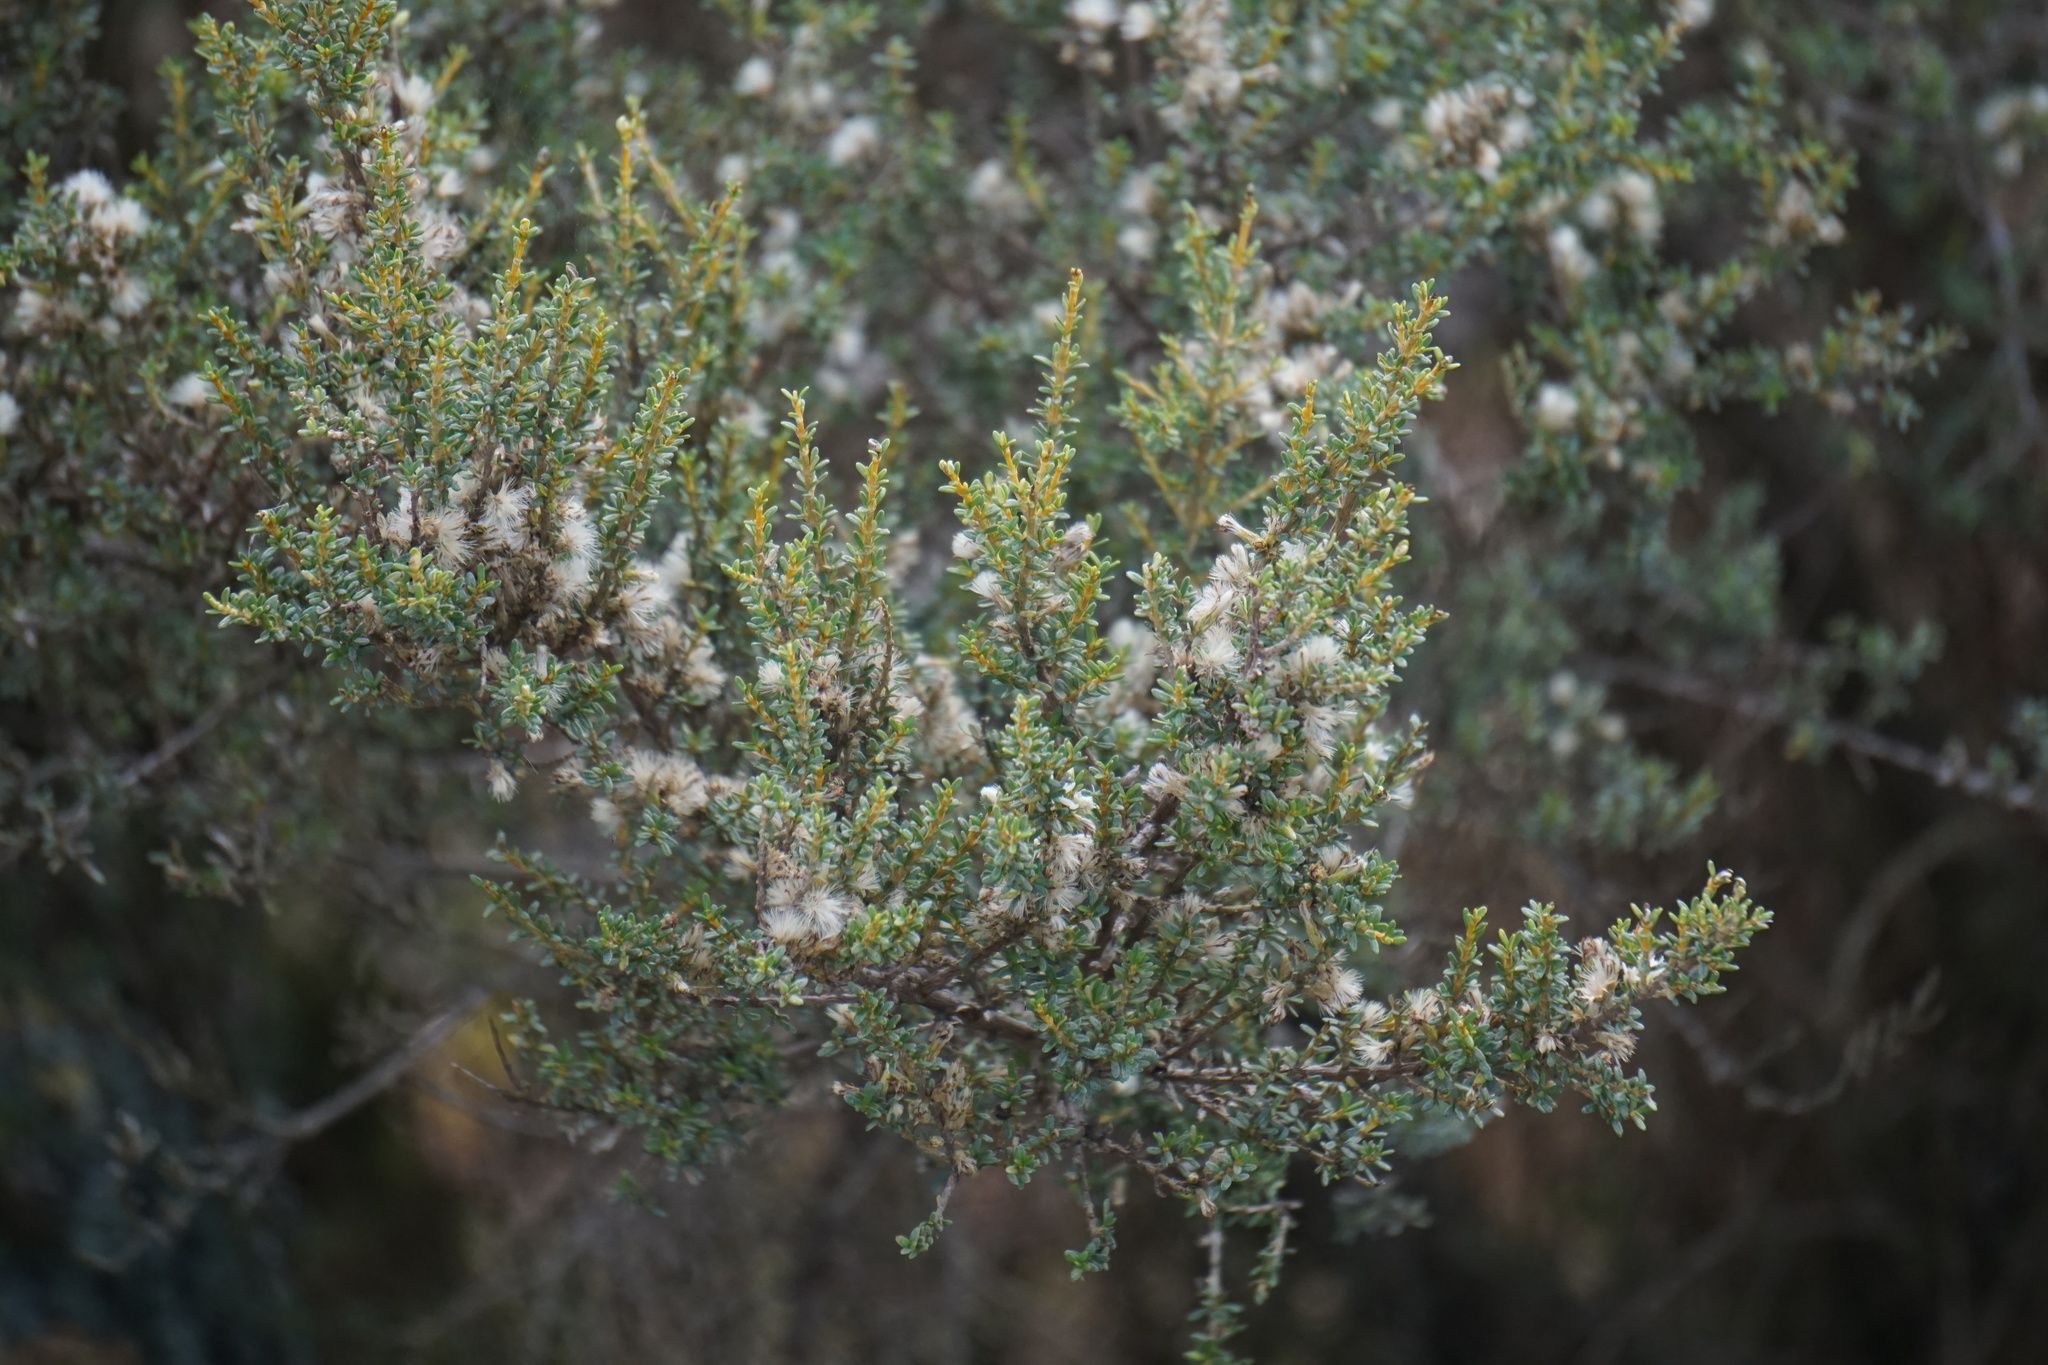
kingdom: Plantae
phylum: Tracheophyta
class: Magnoliopsida
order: Asterales
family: Asteraceae
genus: Olearia
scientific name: Olearia solandri
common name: Coastal daisybush
